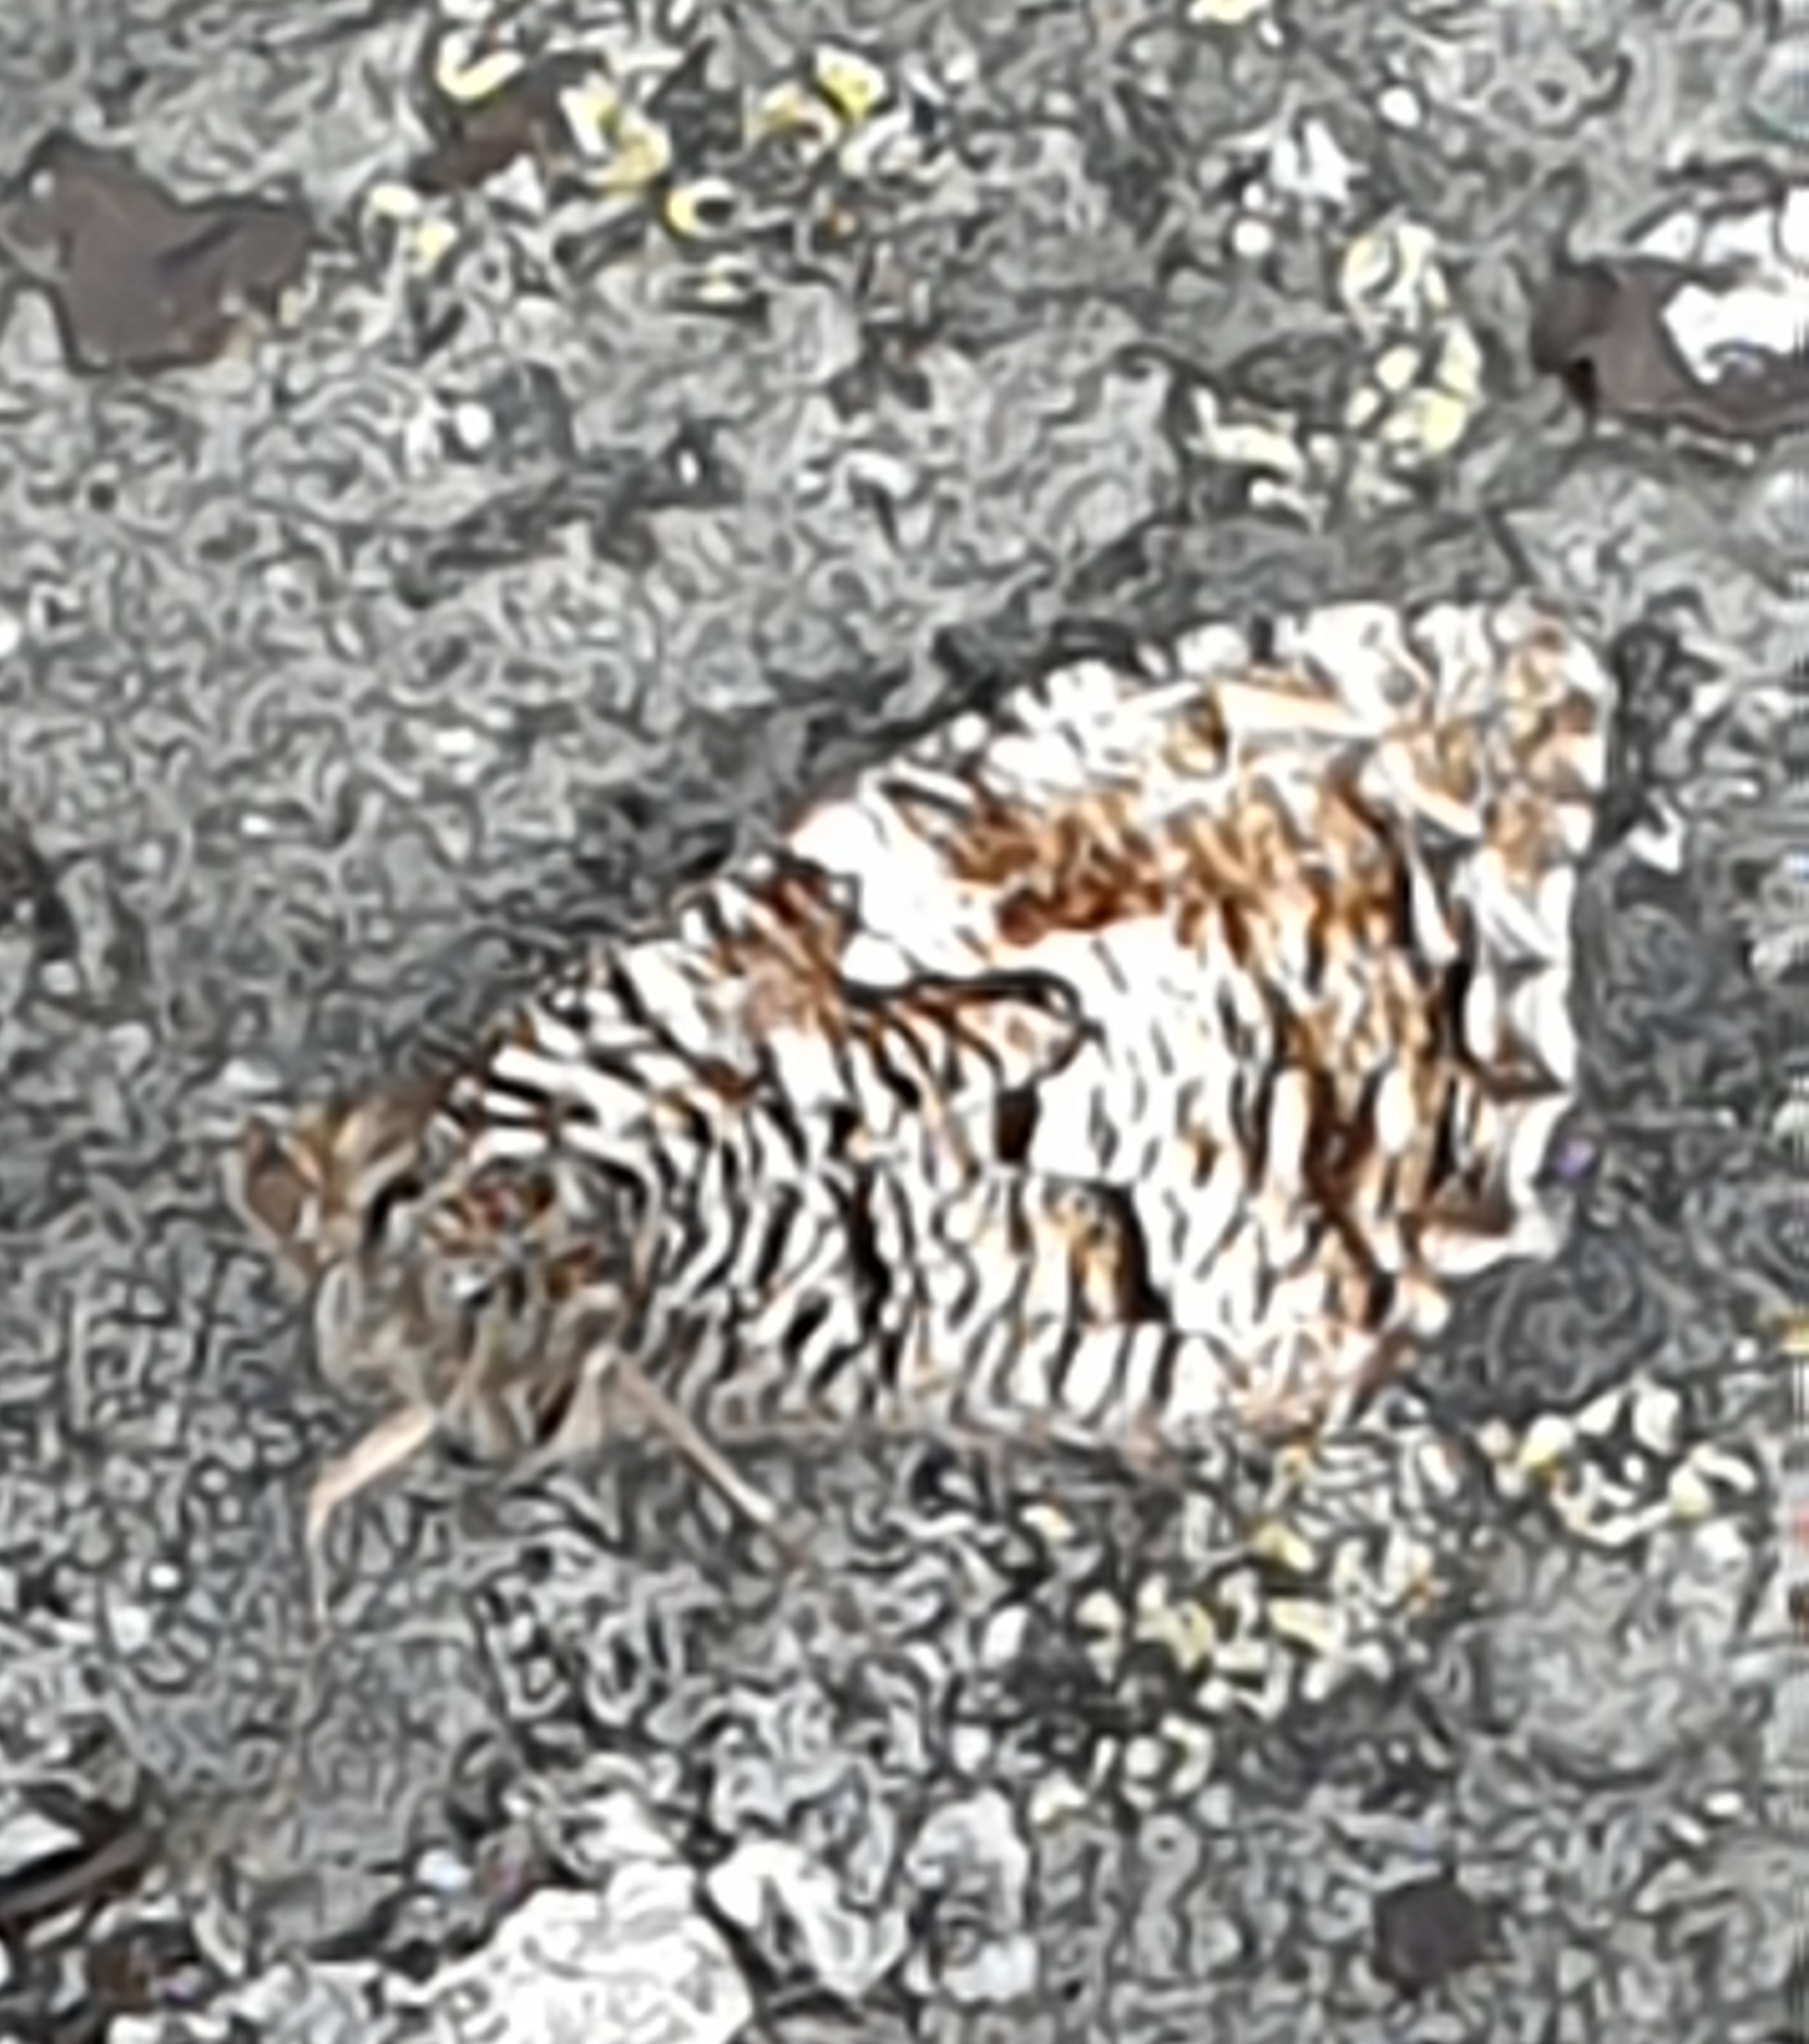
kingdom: Animalia
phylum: Arthropoda
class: Insecta
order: Lepidoptera
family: Nymphalidae
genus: Hipparchia
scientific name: Hipparchia semele
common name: Grayling
